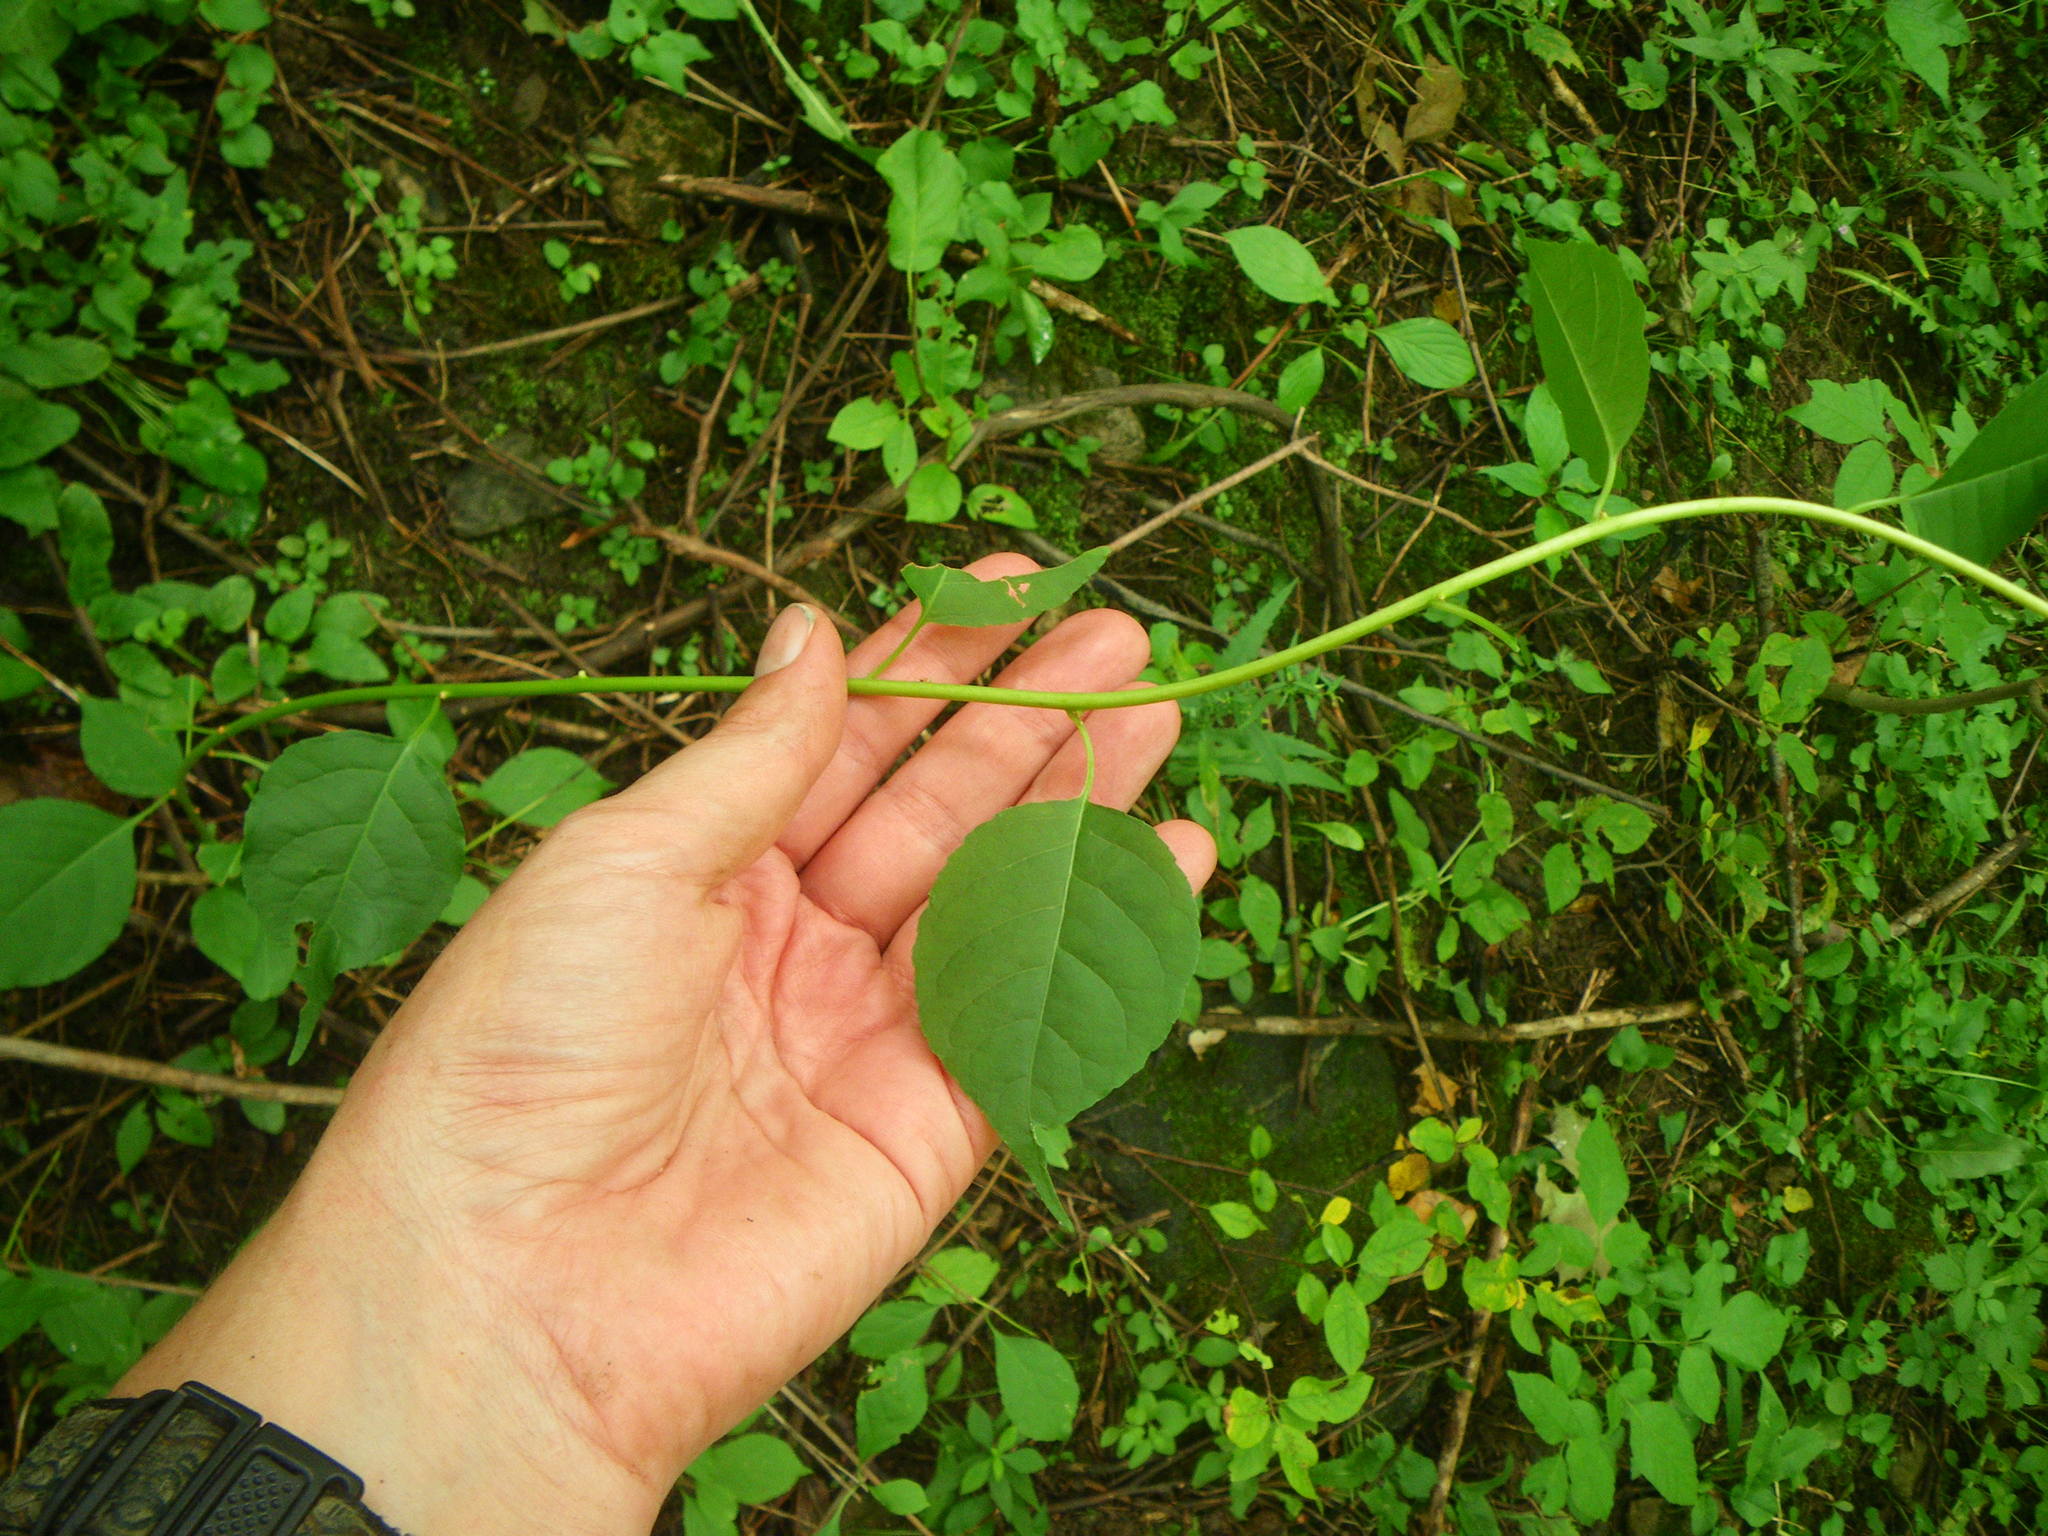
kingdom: Plantae
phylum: Tracheophyta
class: Magnoliopsida
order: Celastrales
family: Celastraceae
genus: Celastrus
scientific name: Celastrus scandens
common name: American bittersweet
